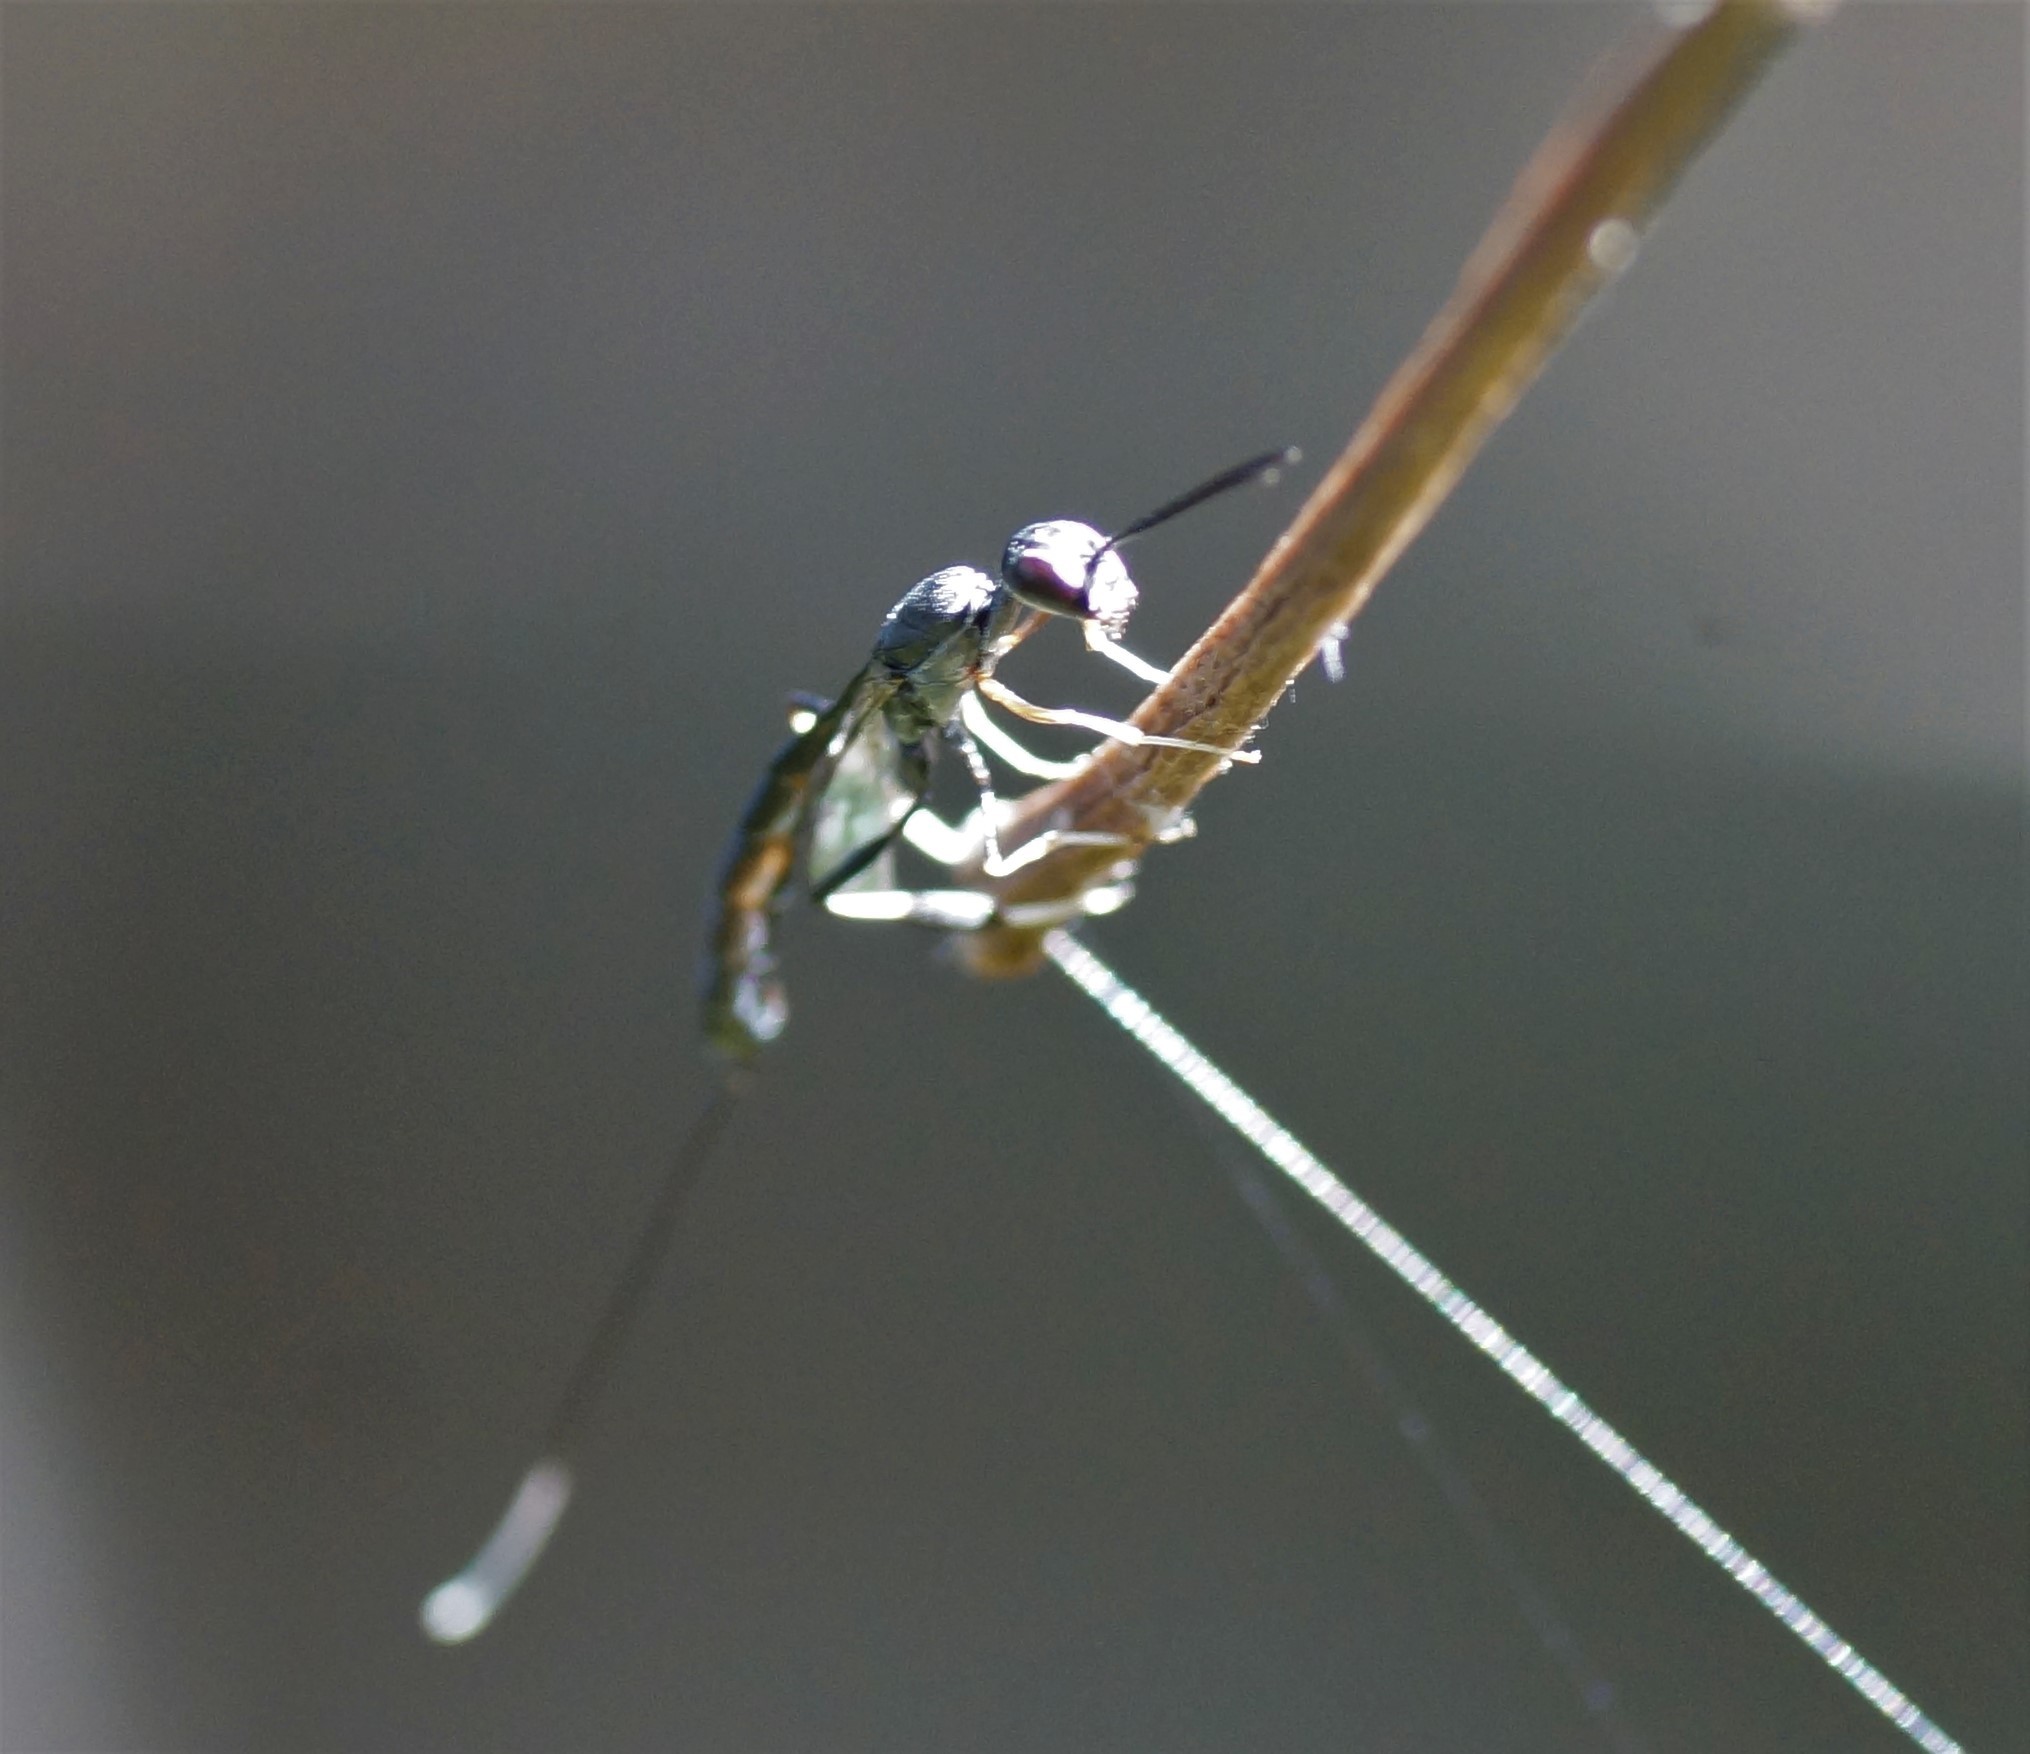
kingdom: Animalia
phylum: Arthropoda
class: Insecta
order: Hymenoptera
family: Gasteruptiidae
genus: Gasteruption
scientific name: Gasteruption
